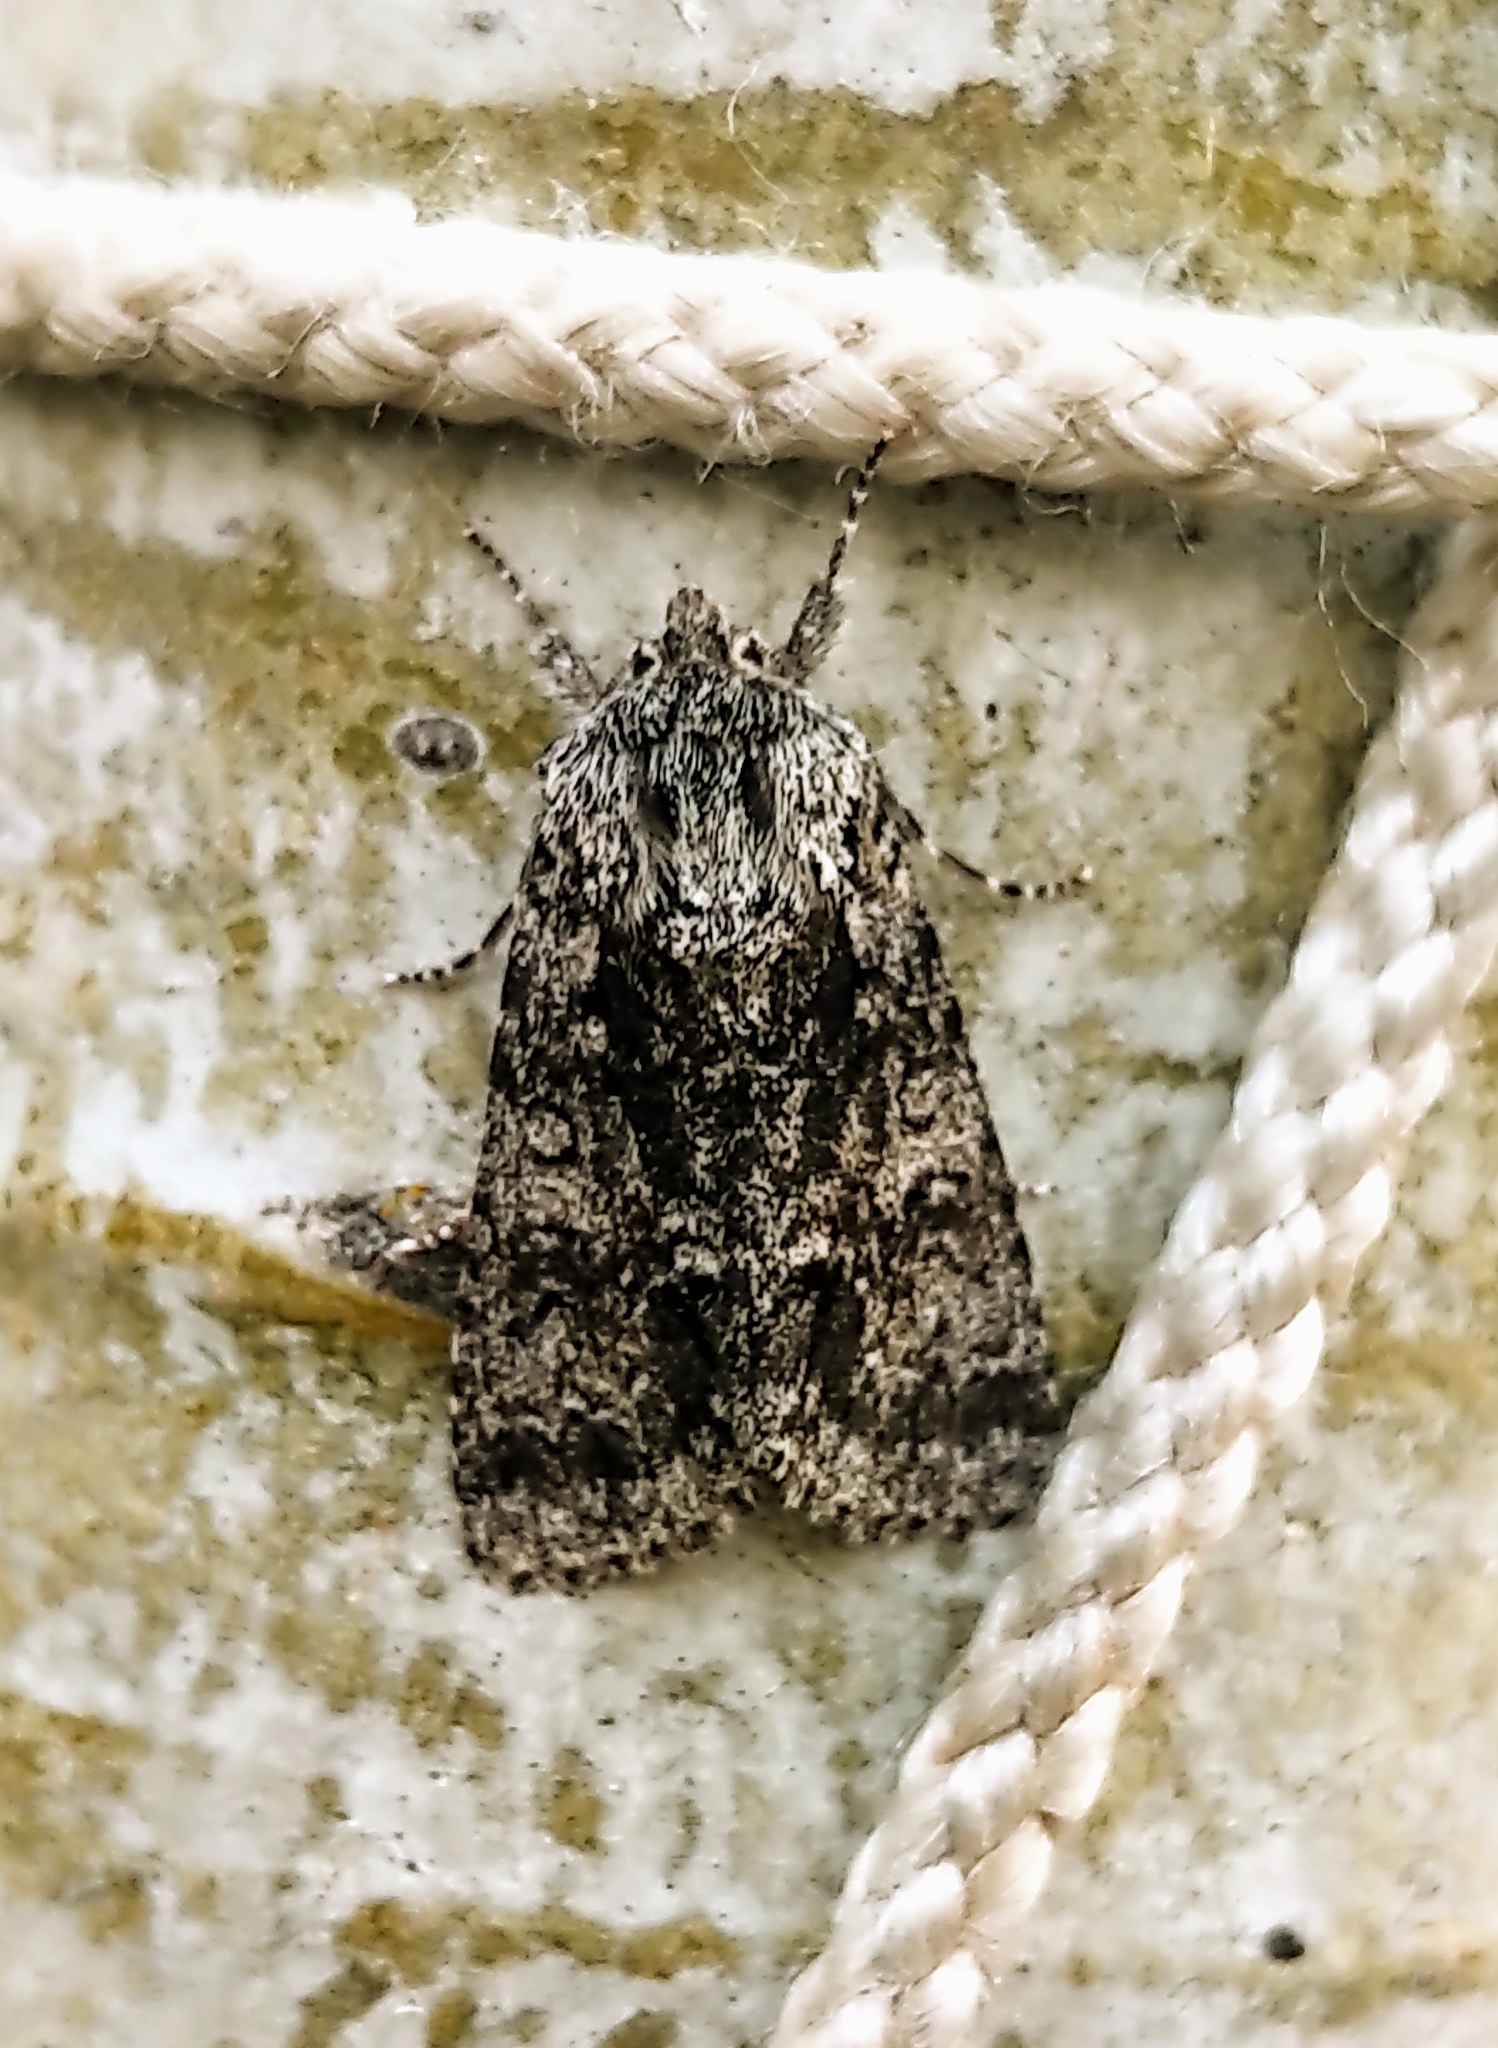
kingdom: Animalia
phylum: Arthropoda
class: Insecta
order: Lepidoptera
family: Noctuidae
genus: Acronicta
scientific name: Acronicta impressa
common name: Impressed dagger
